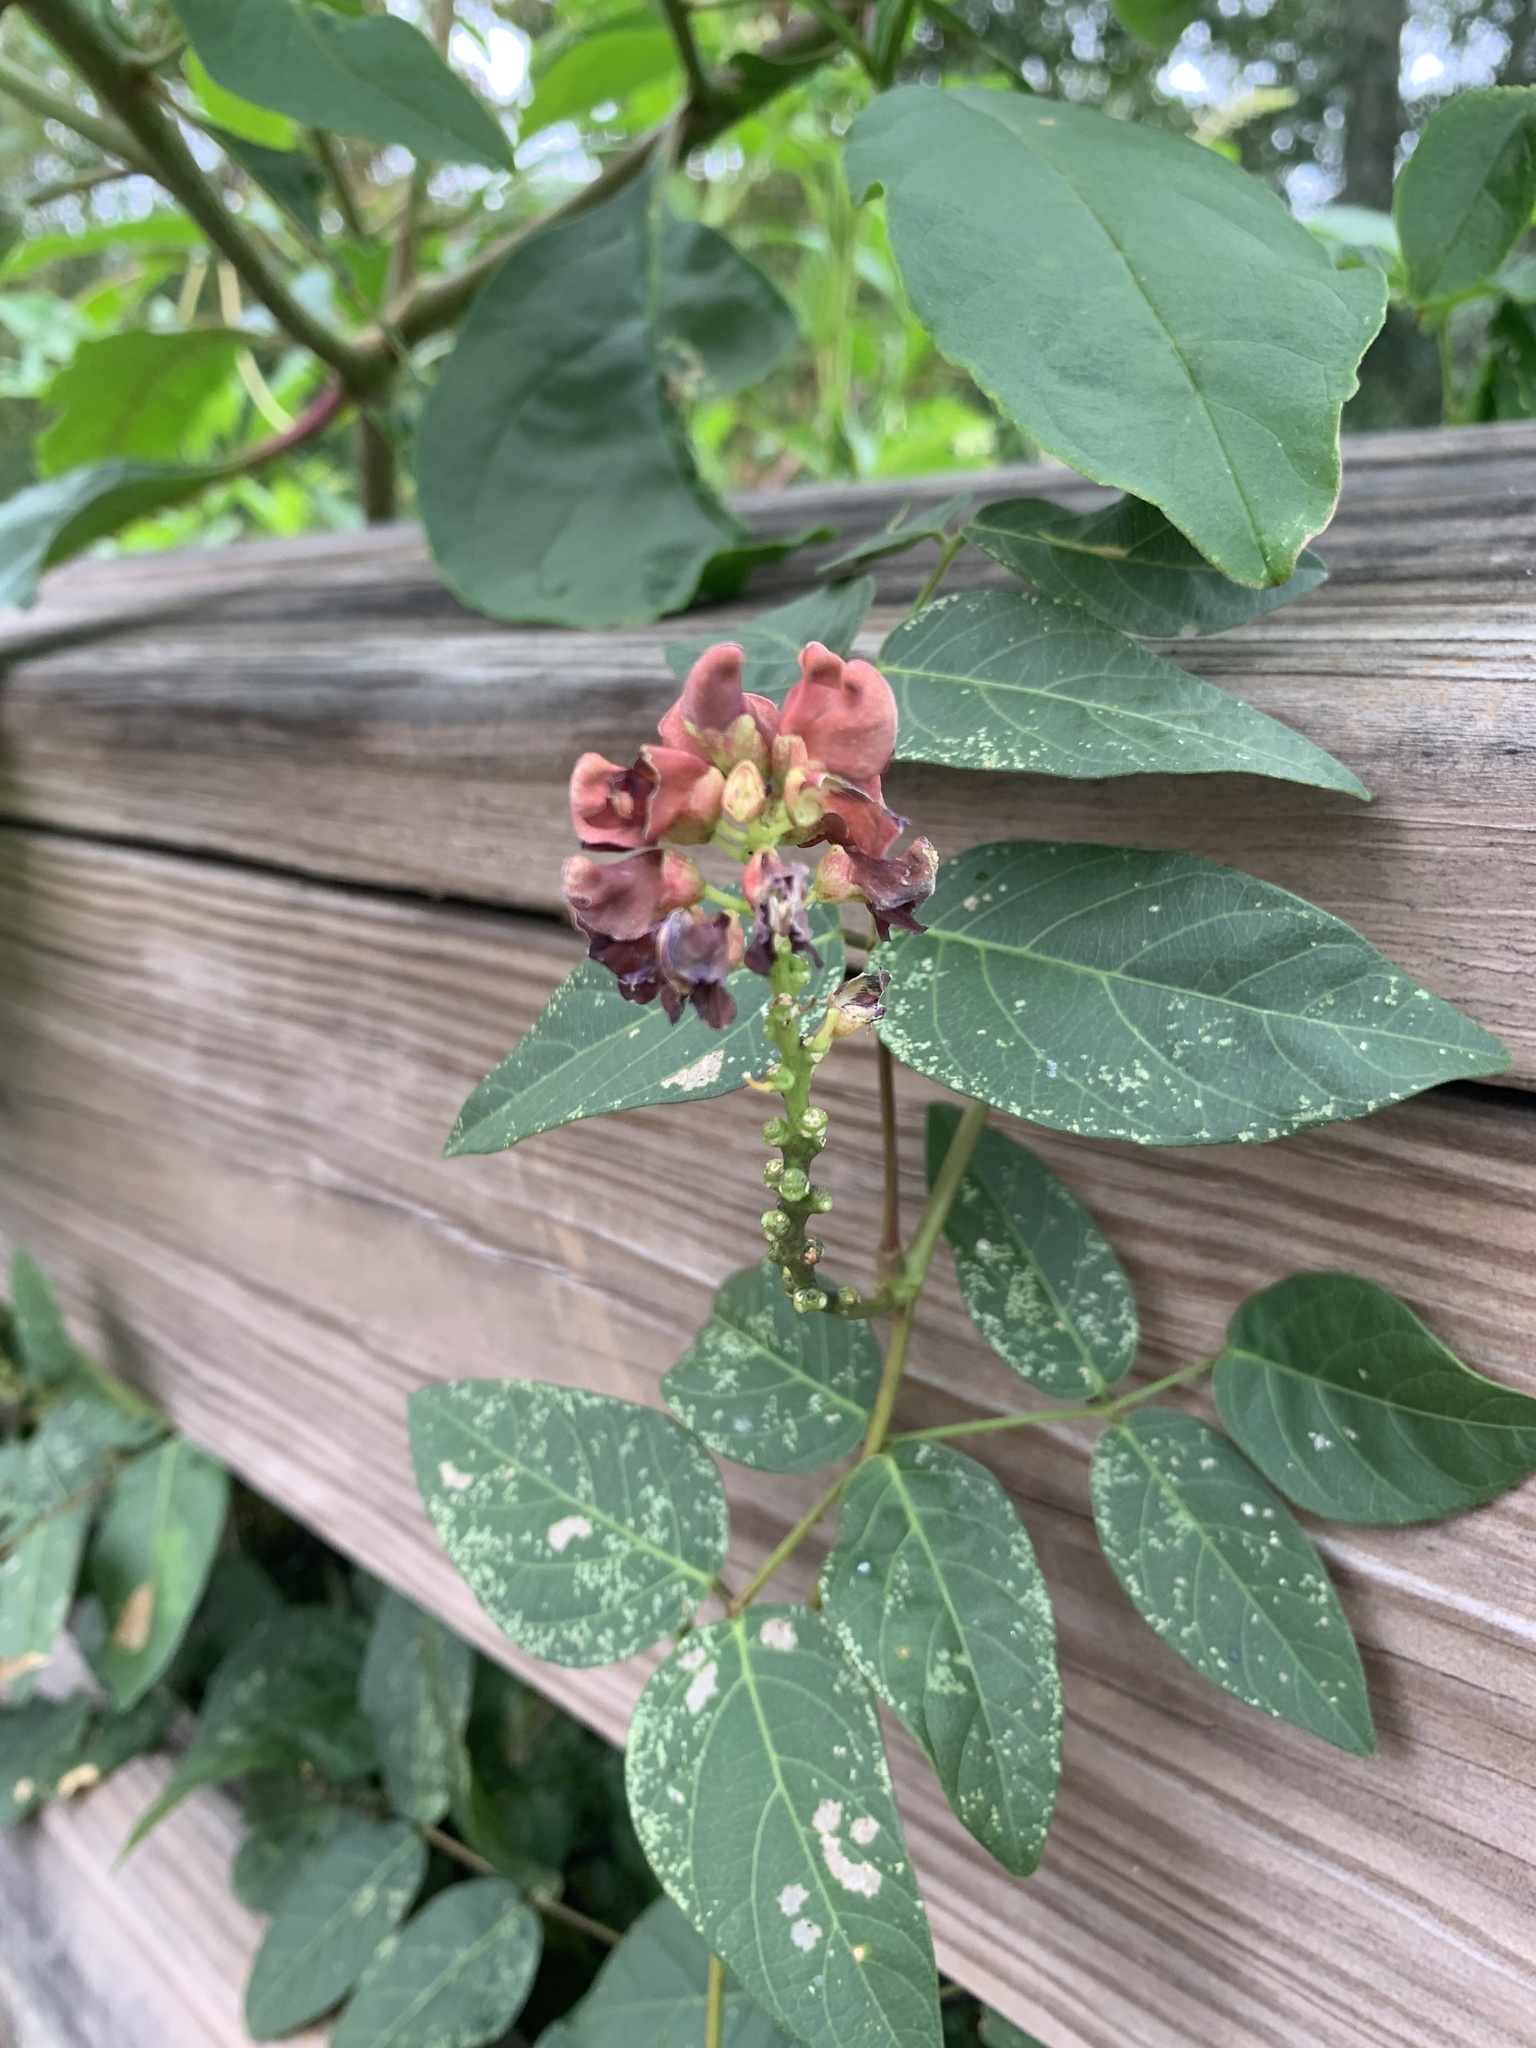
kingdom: Plantae
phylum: Tracheophyta
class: Magnoliopsida
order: Fabales
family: Fabaceae
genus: Apios
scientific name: Apios americana
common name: American potato-bean
